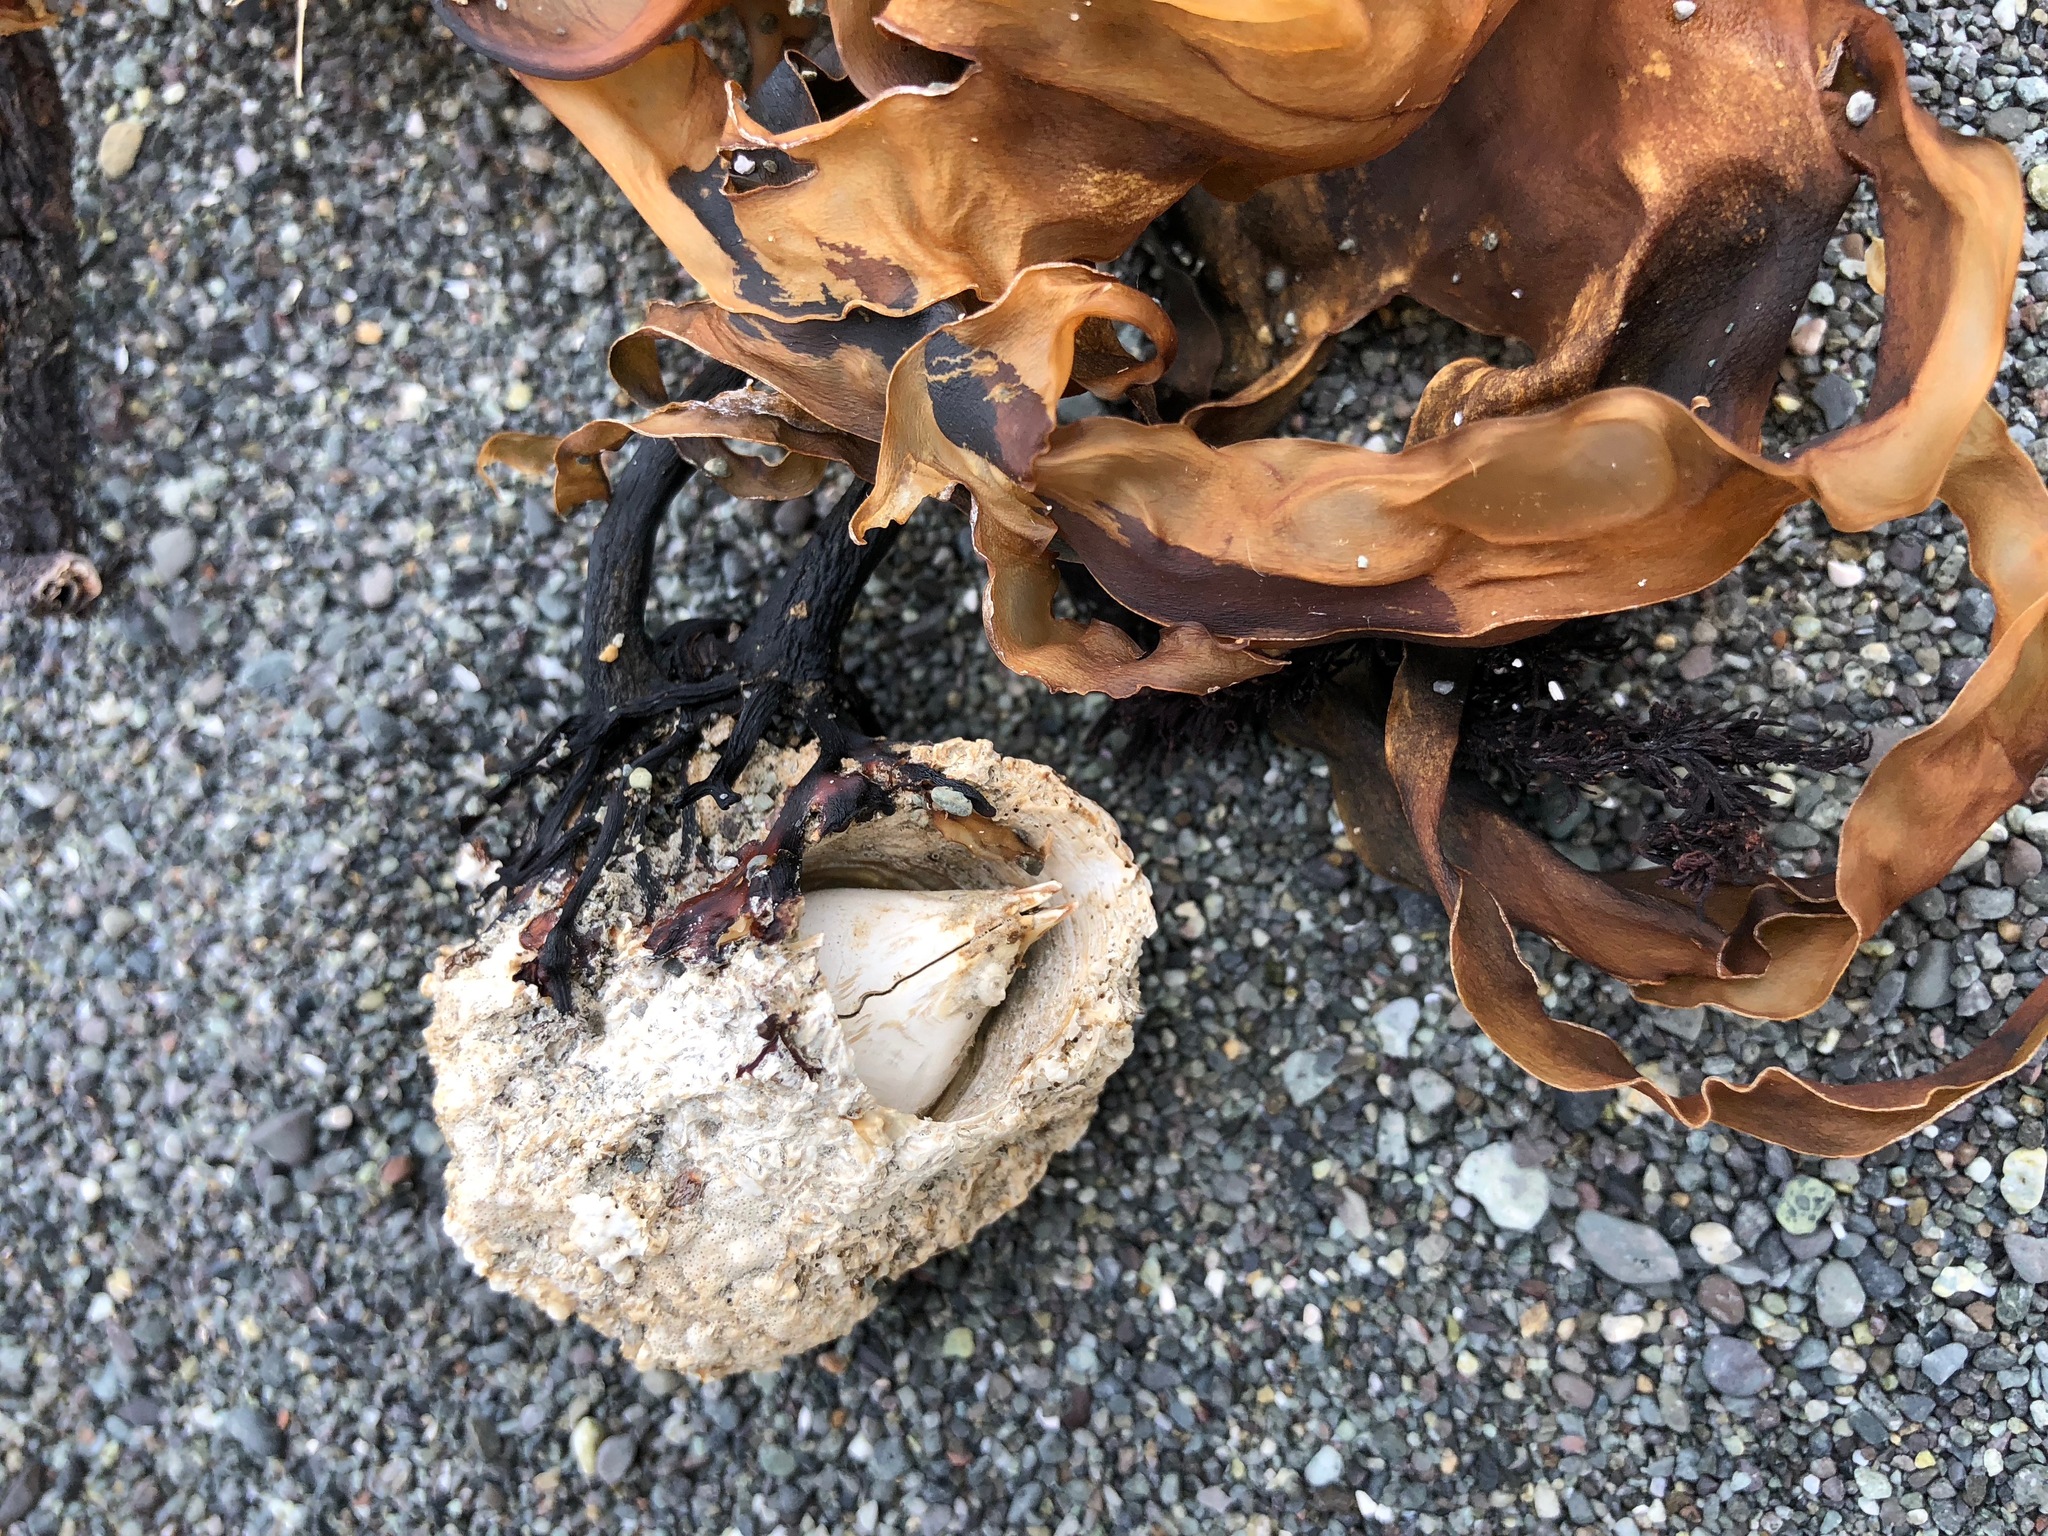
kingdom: Animalia
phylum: Arthropoda
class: Maxillopoda
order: Sessilia
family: Archaeobalanidae
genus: Semibalanus
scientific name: Semibalanus cariosus
